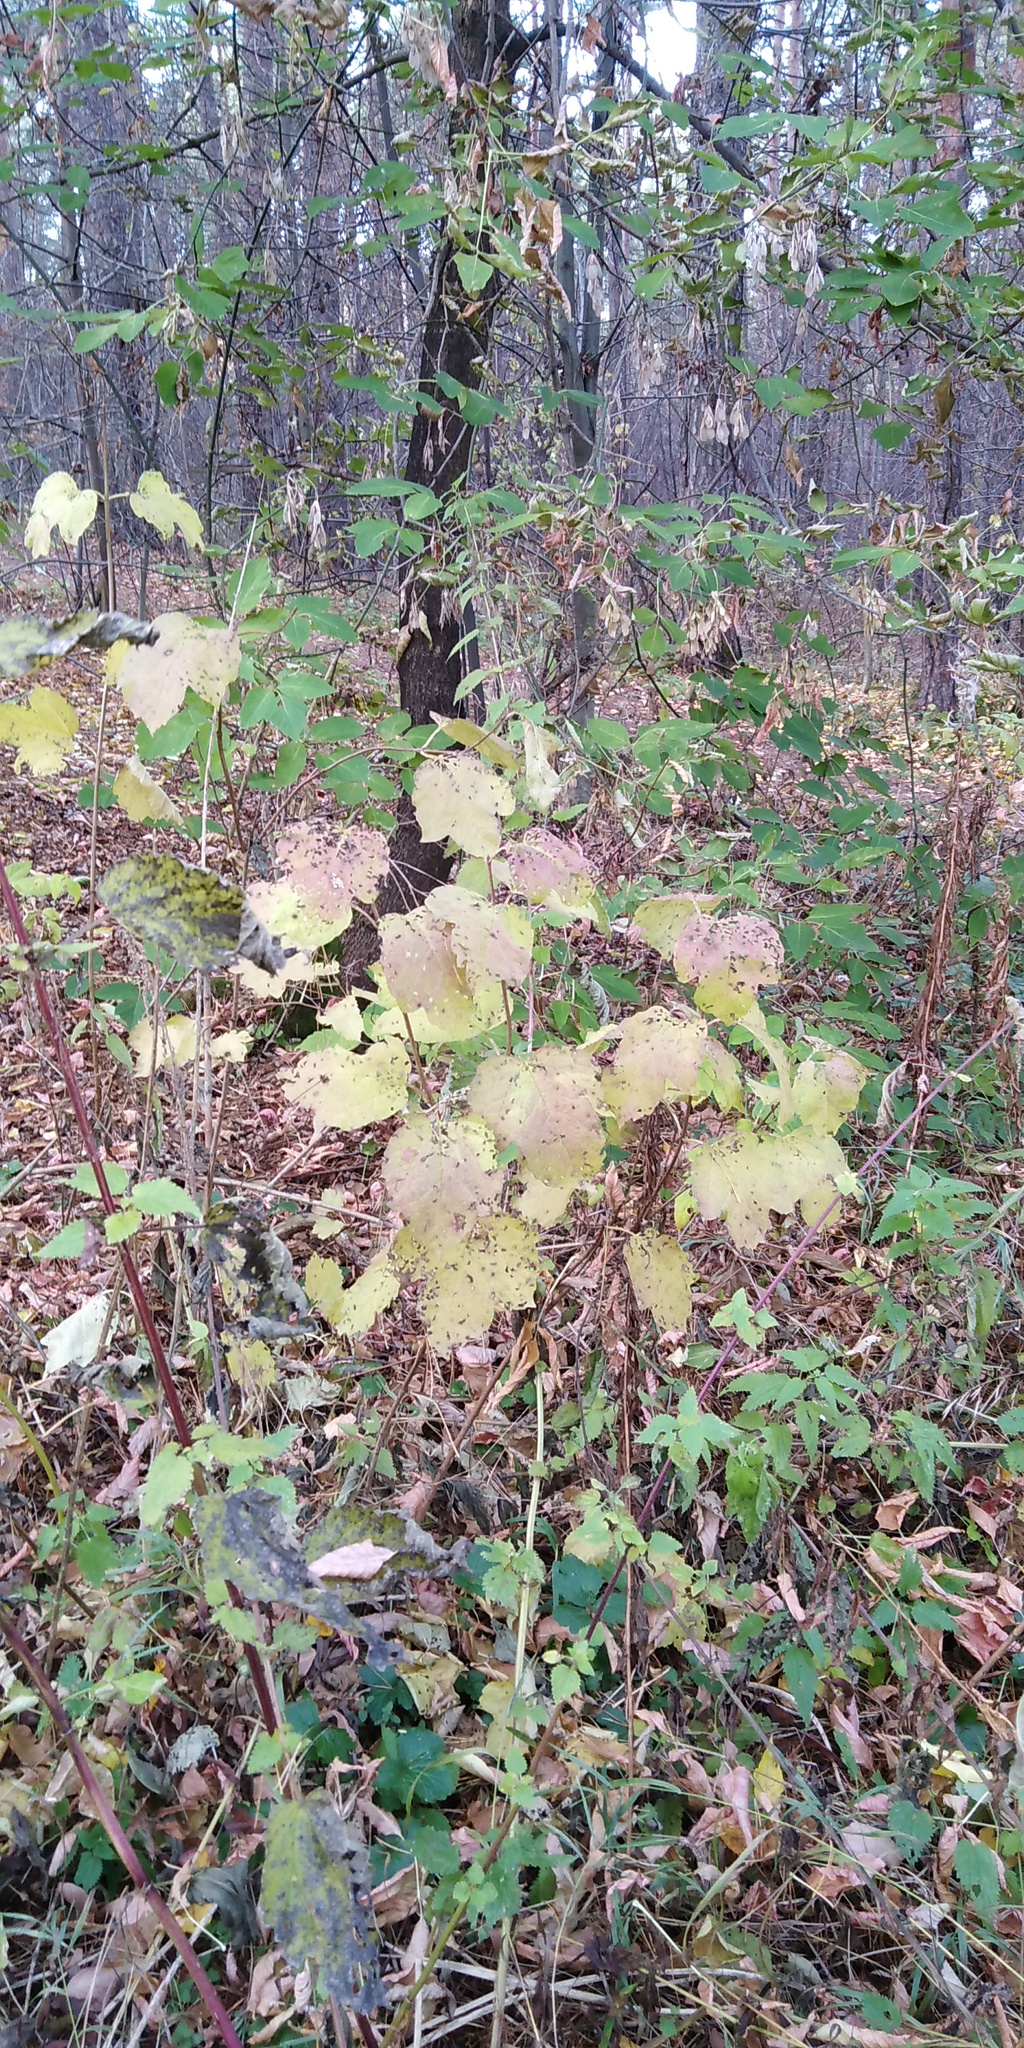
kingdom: Plantae
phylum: Tracheophyta
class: Magnoliopsida
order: Dipsacales
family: Viburnaceae
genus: Viburnum
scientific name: Viburnum opulus
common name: Guelder-rose
